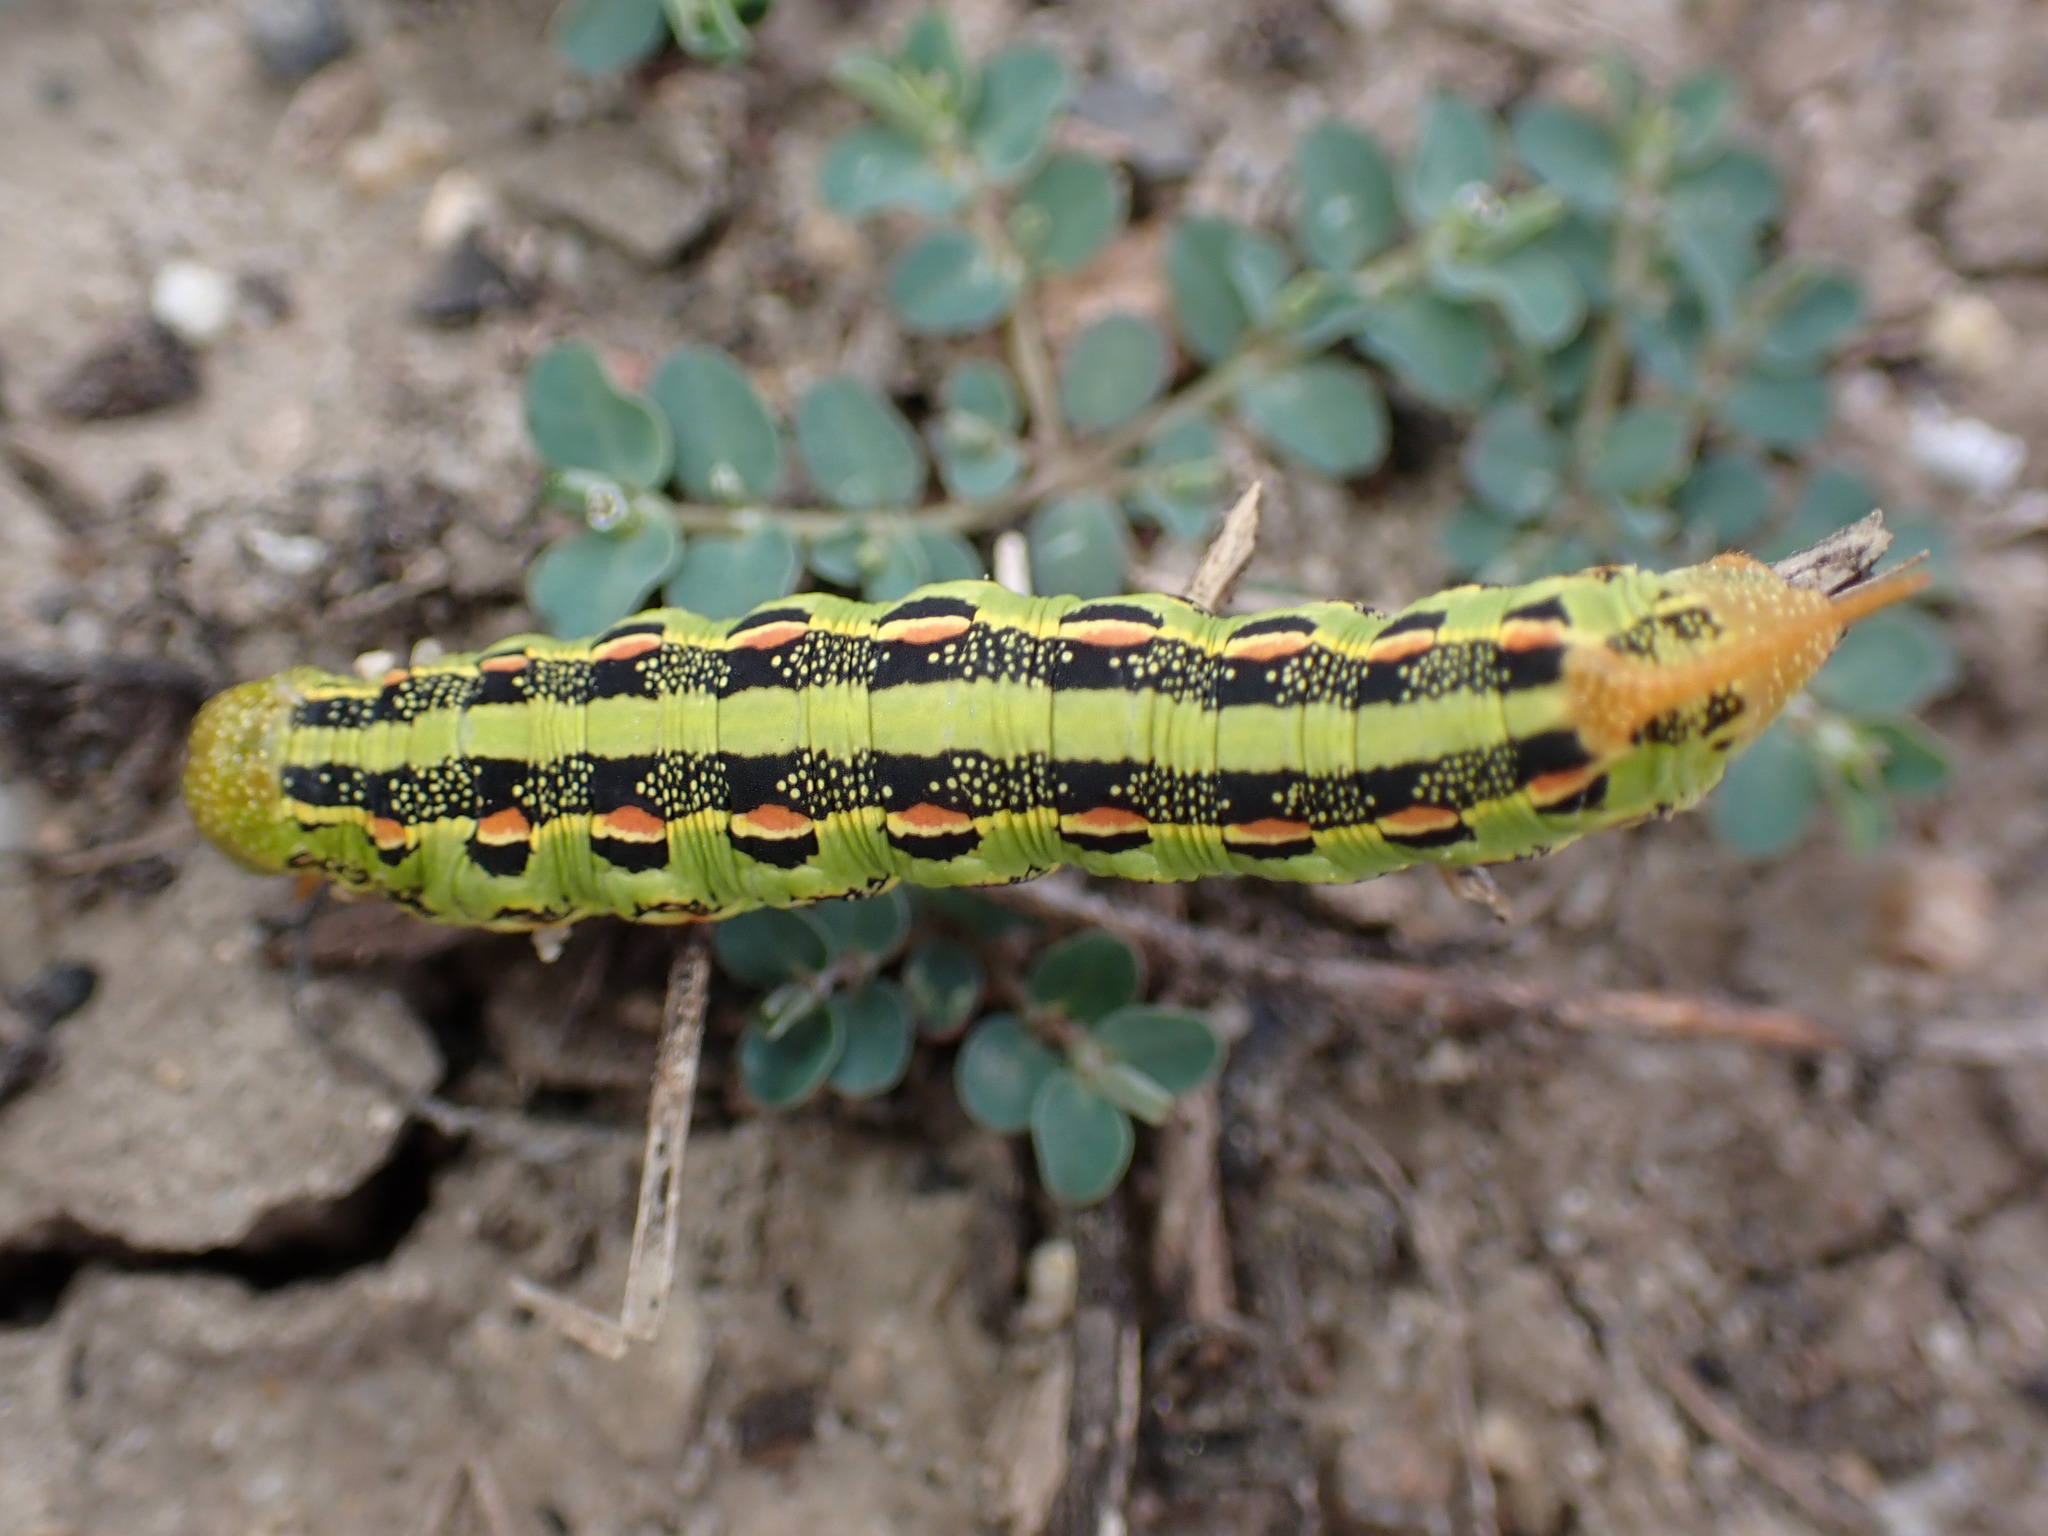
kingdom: Animalia
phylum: Arthropoda
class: Insecta
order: Lepidoptera
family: Sphingidae
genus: Hyles
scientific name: Hyles lineata
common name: White-lined sphinx
